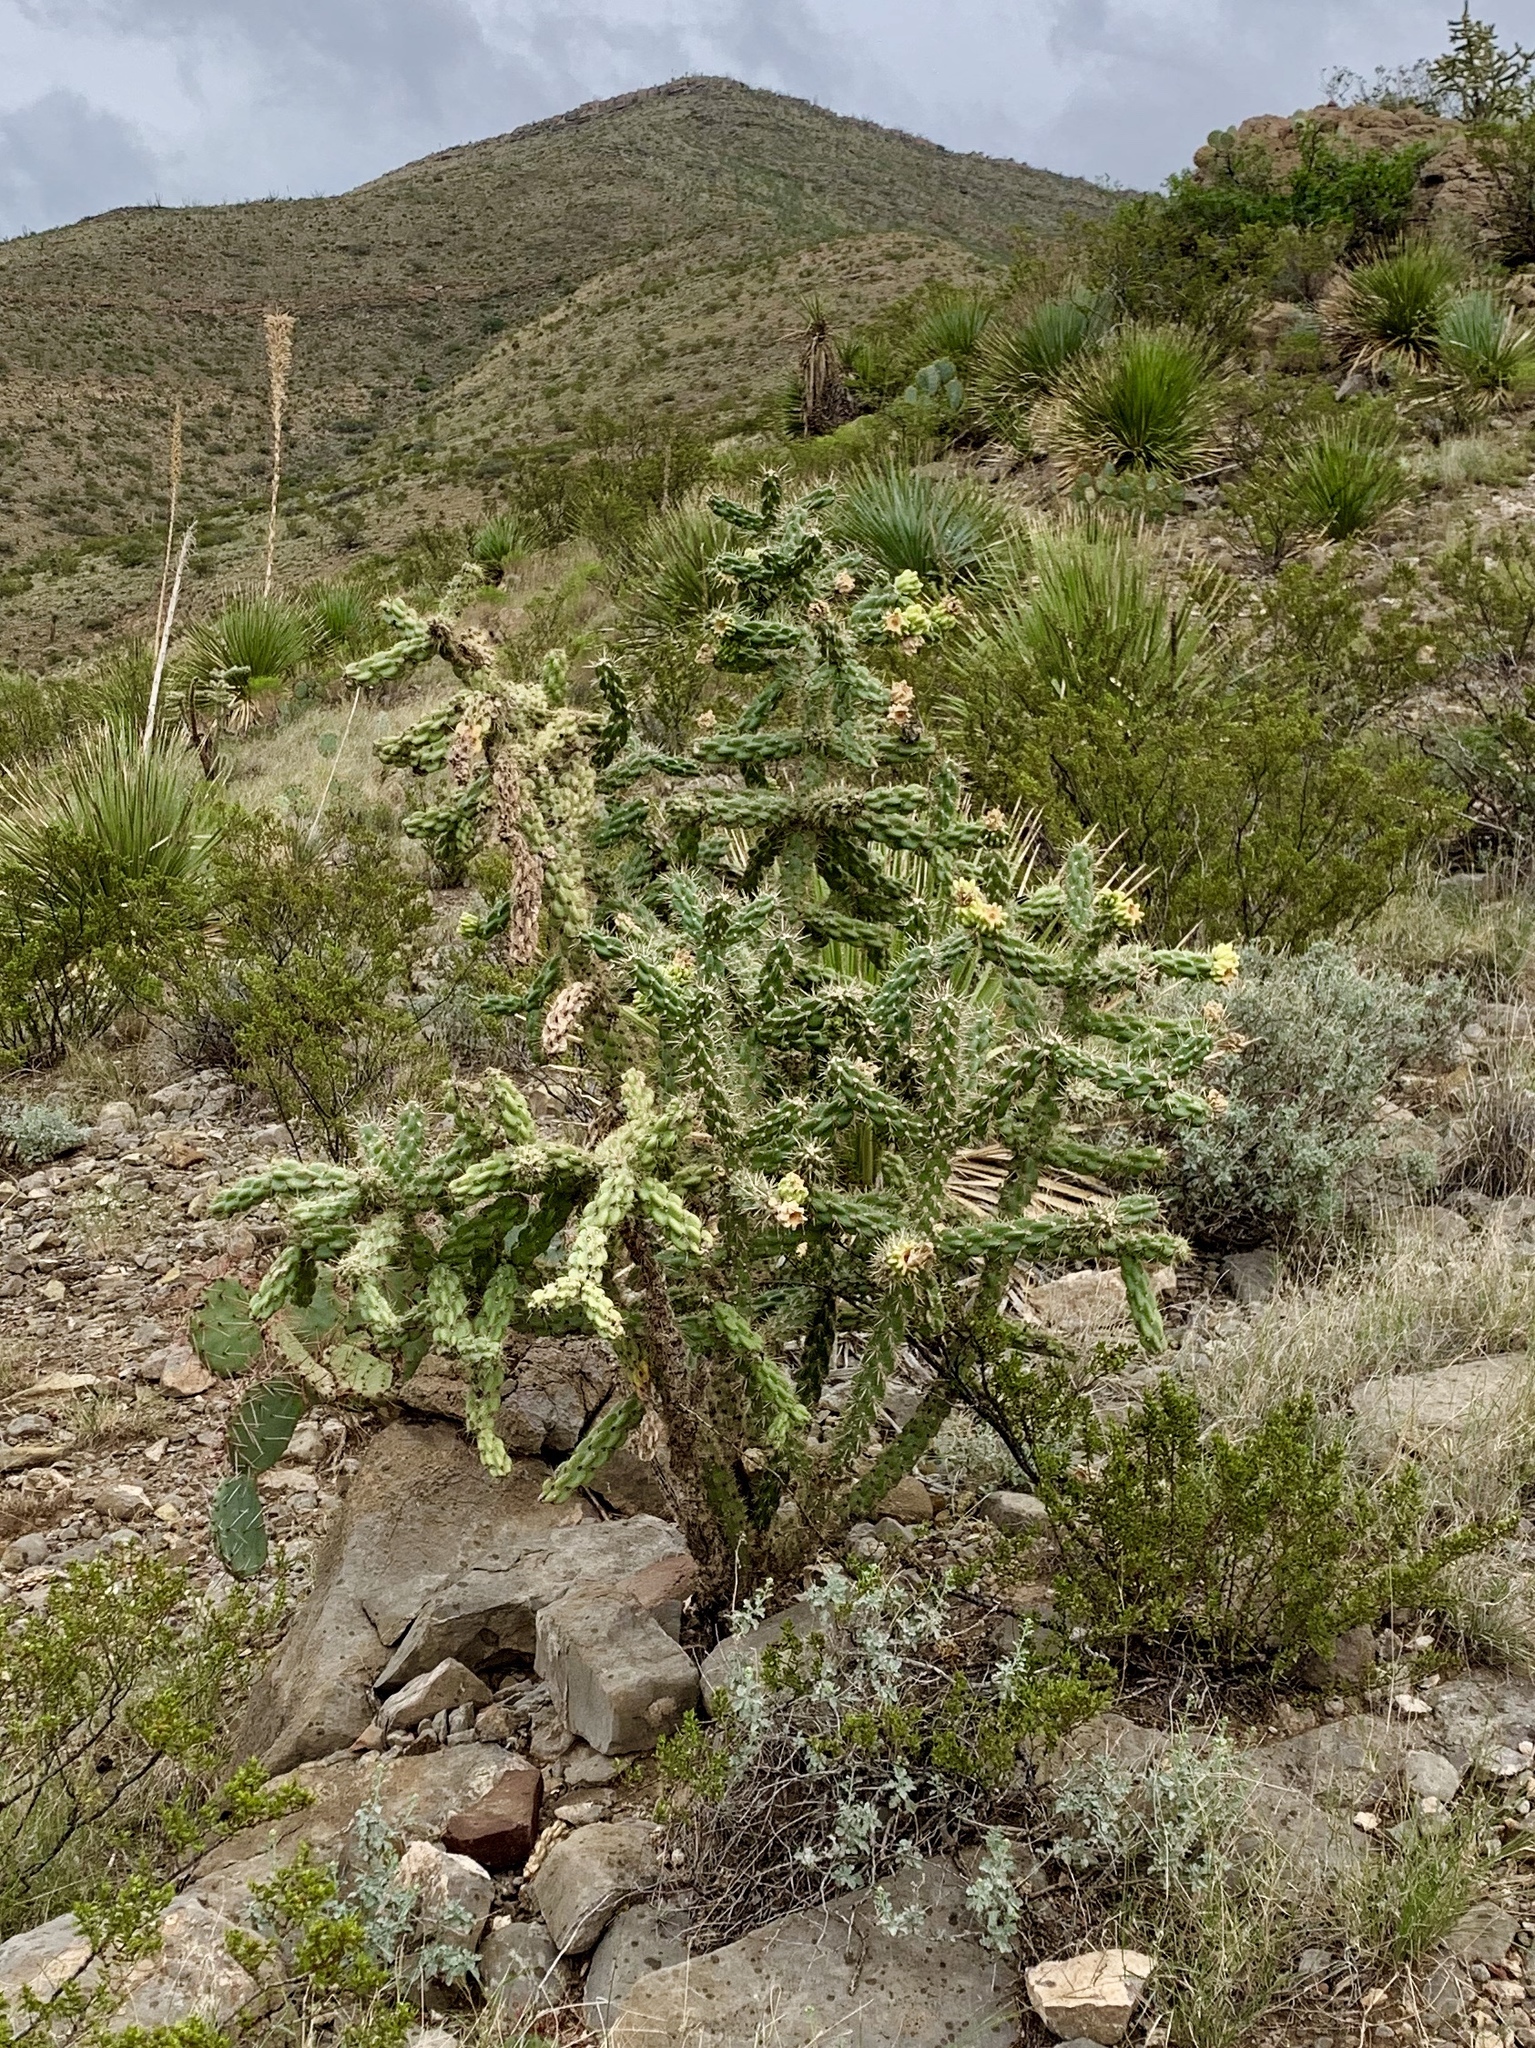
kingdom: Plantae
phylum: Tracheophyta
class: Magnoliopsida
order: Caryophyllales
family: Cactaceae
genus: Cylindropuntia
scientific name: Cylindropuntia imbricata
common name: Candelabrum cactus
